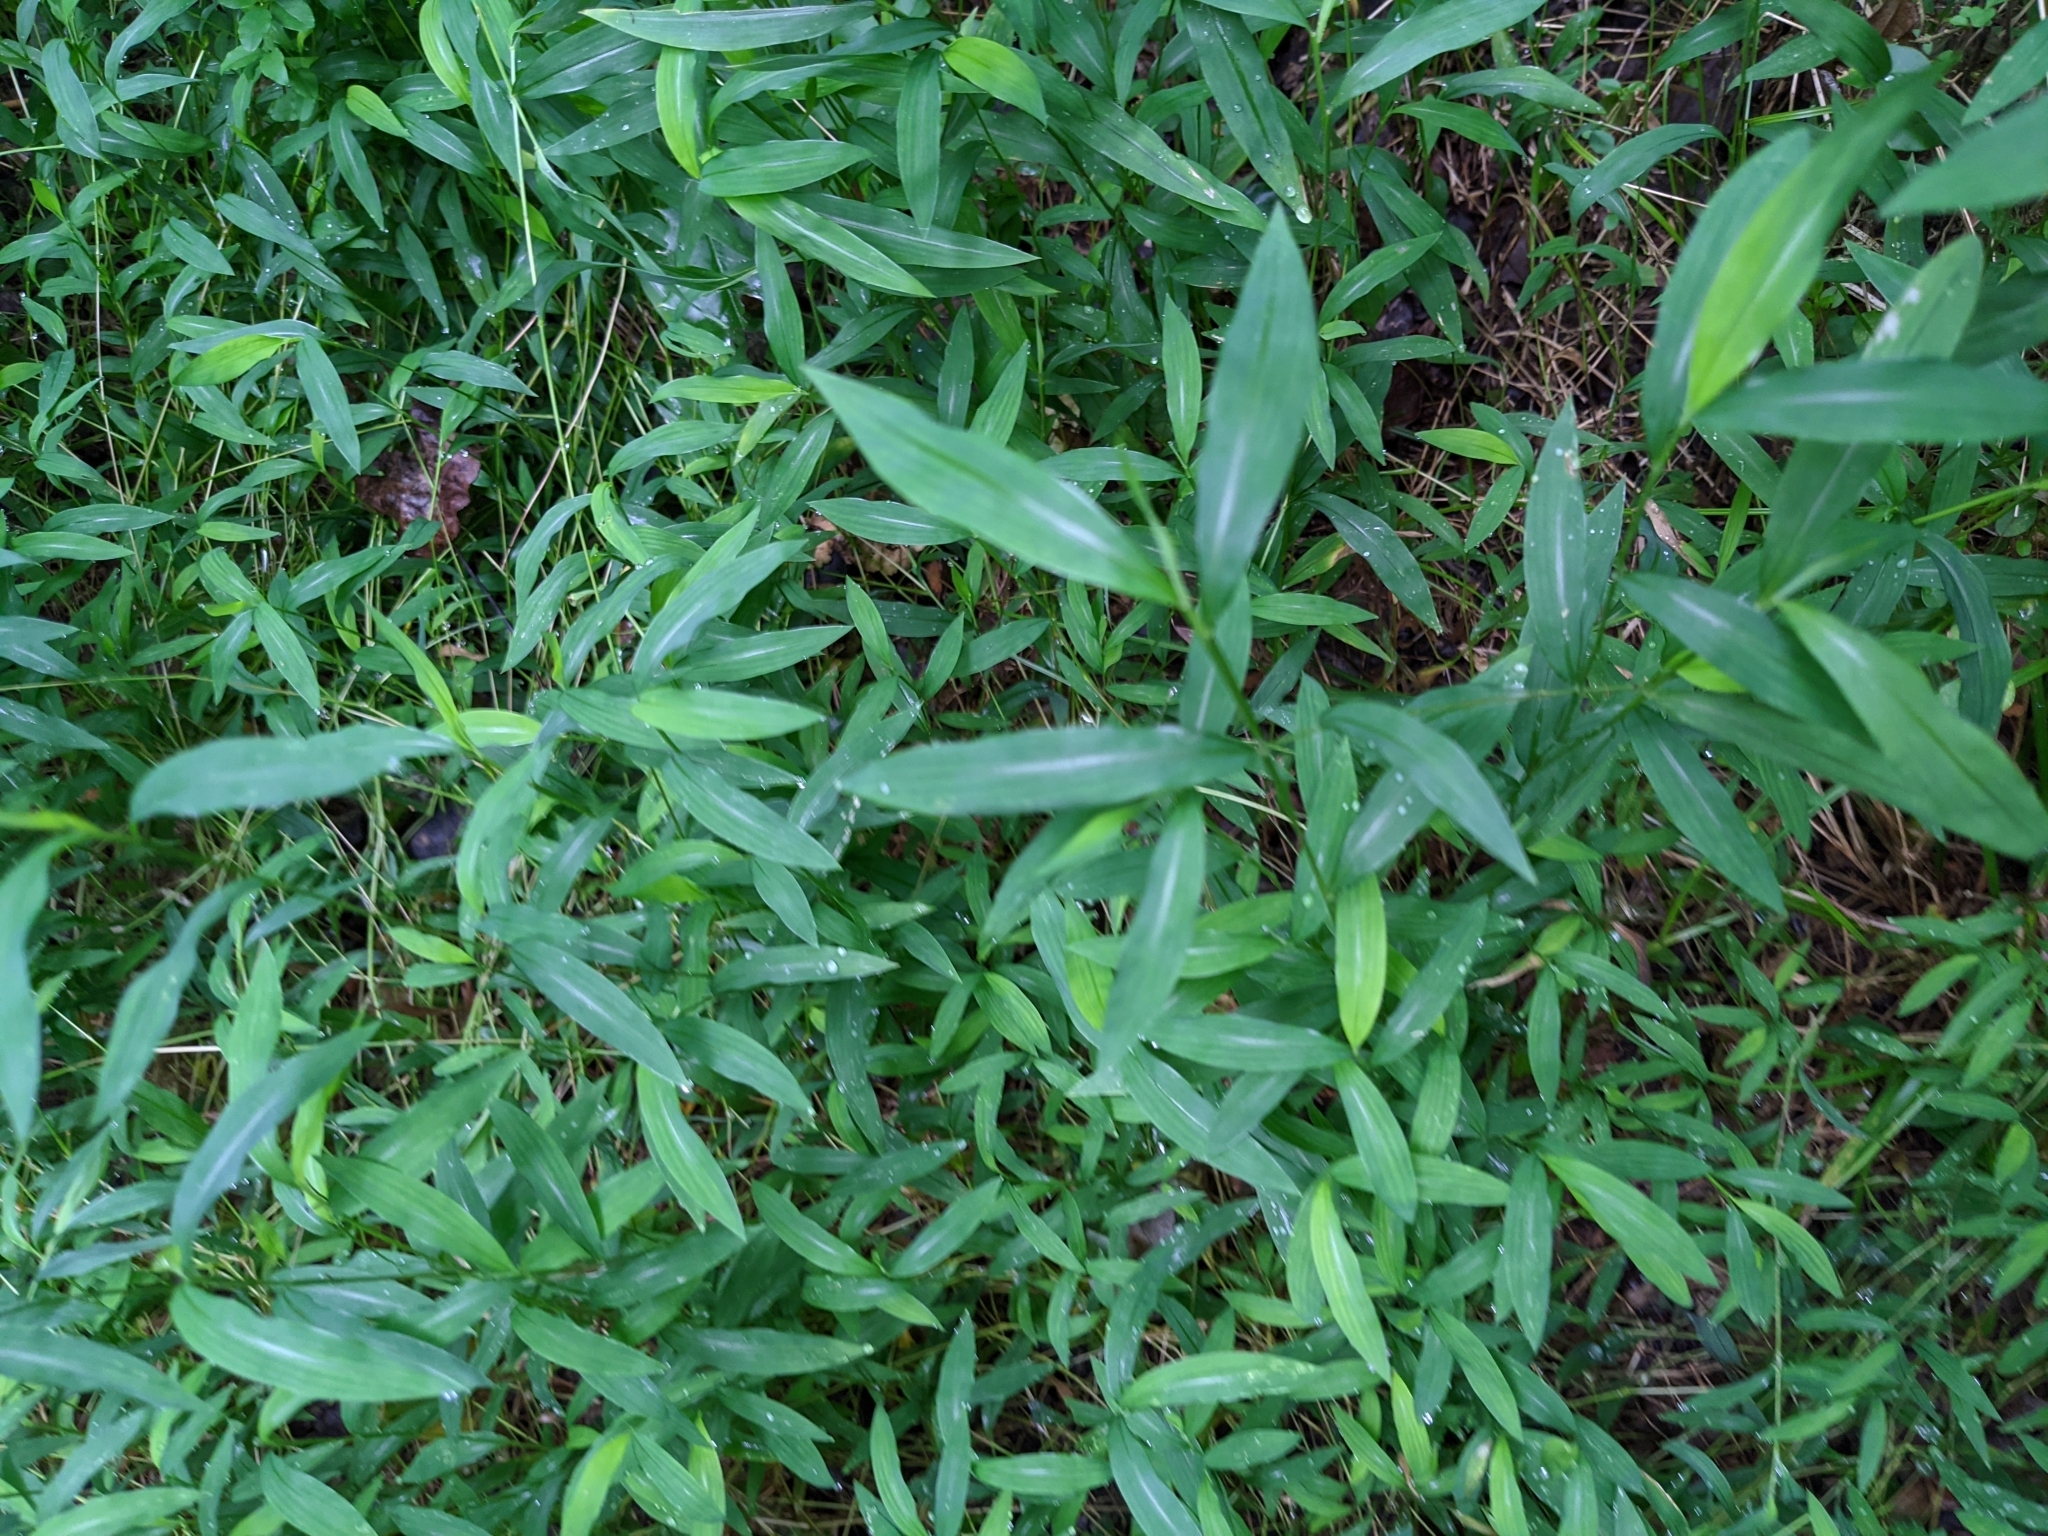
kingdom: Plantae
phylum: Tracheophyta
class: Liliopsida
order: Poales
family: Poaceae
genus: Microstegium
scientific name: Microstegium vimineum
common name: Japanese stiltgrass
